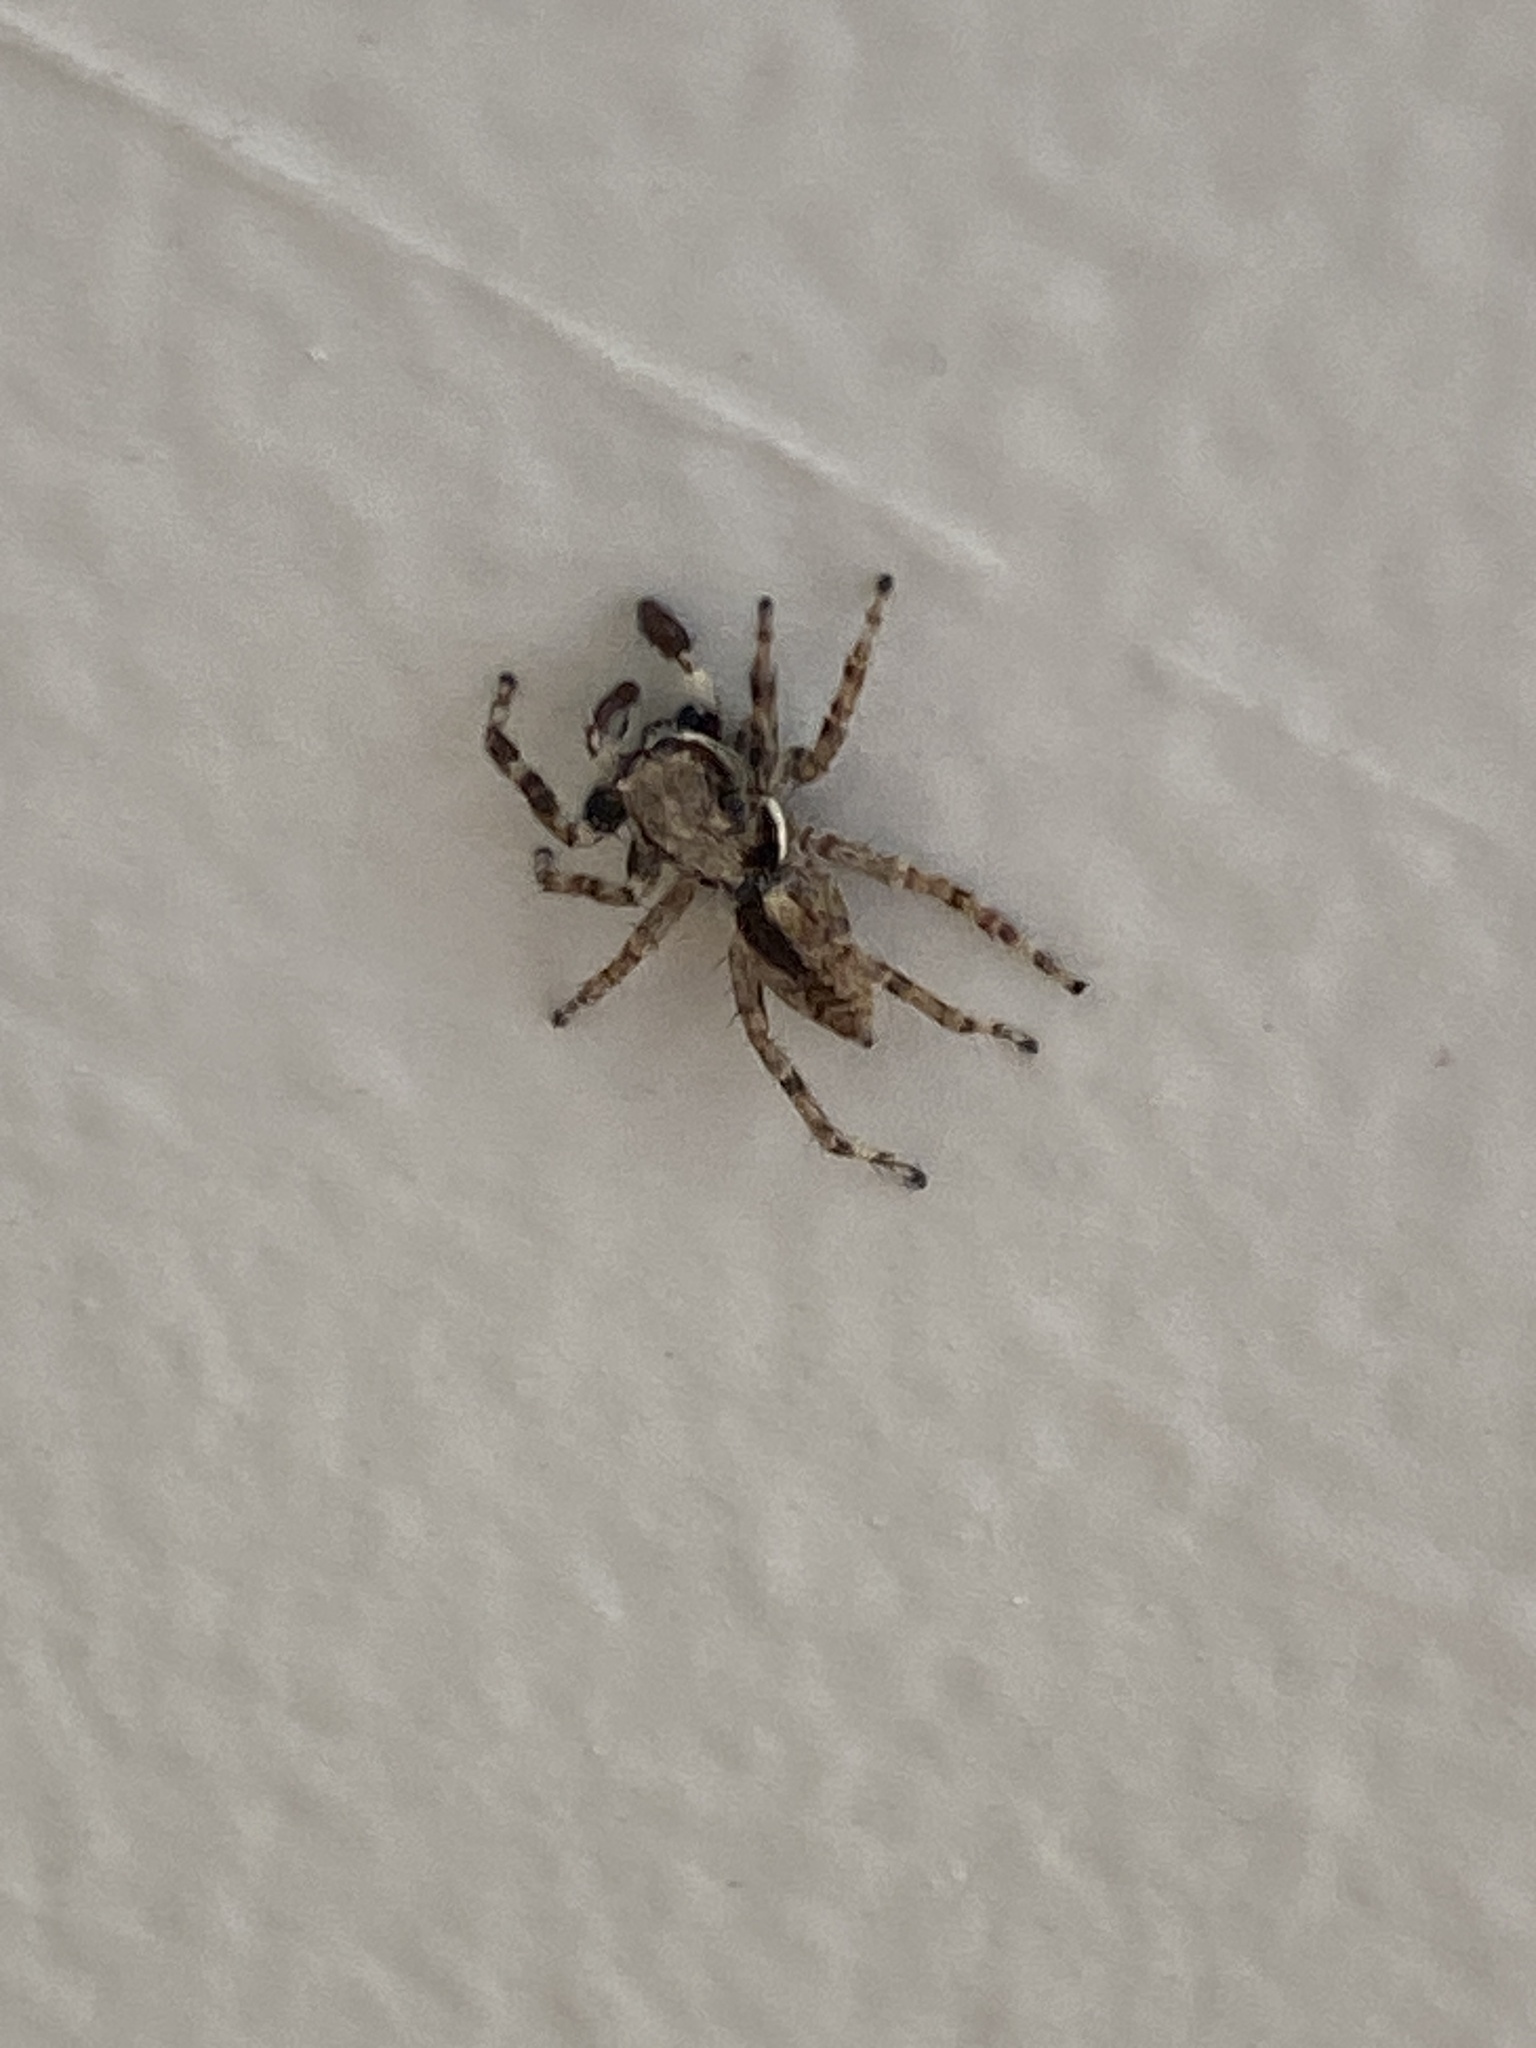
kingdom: Animalia
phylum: Arthropoda
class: Arachnida
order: Araneae
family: Salticidae
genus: Menemerus
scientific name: Menemerus bivittatus
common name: Gray wall jumper
